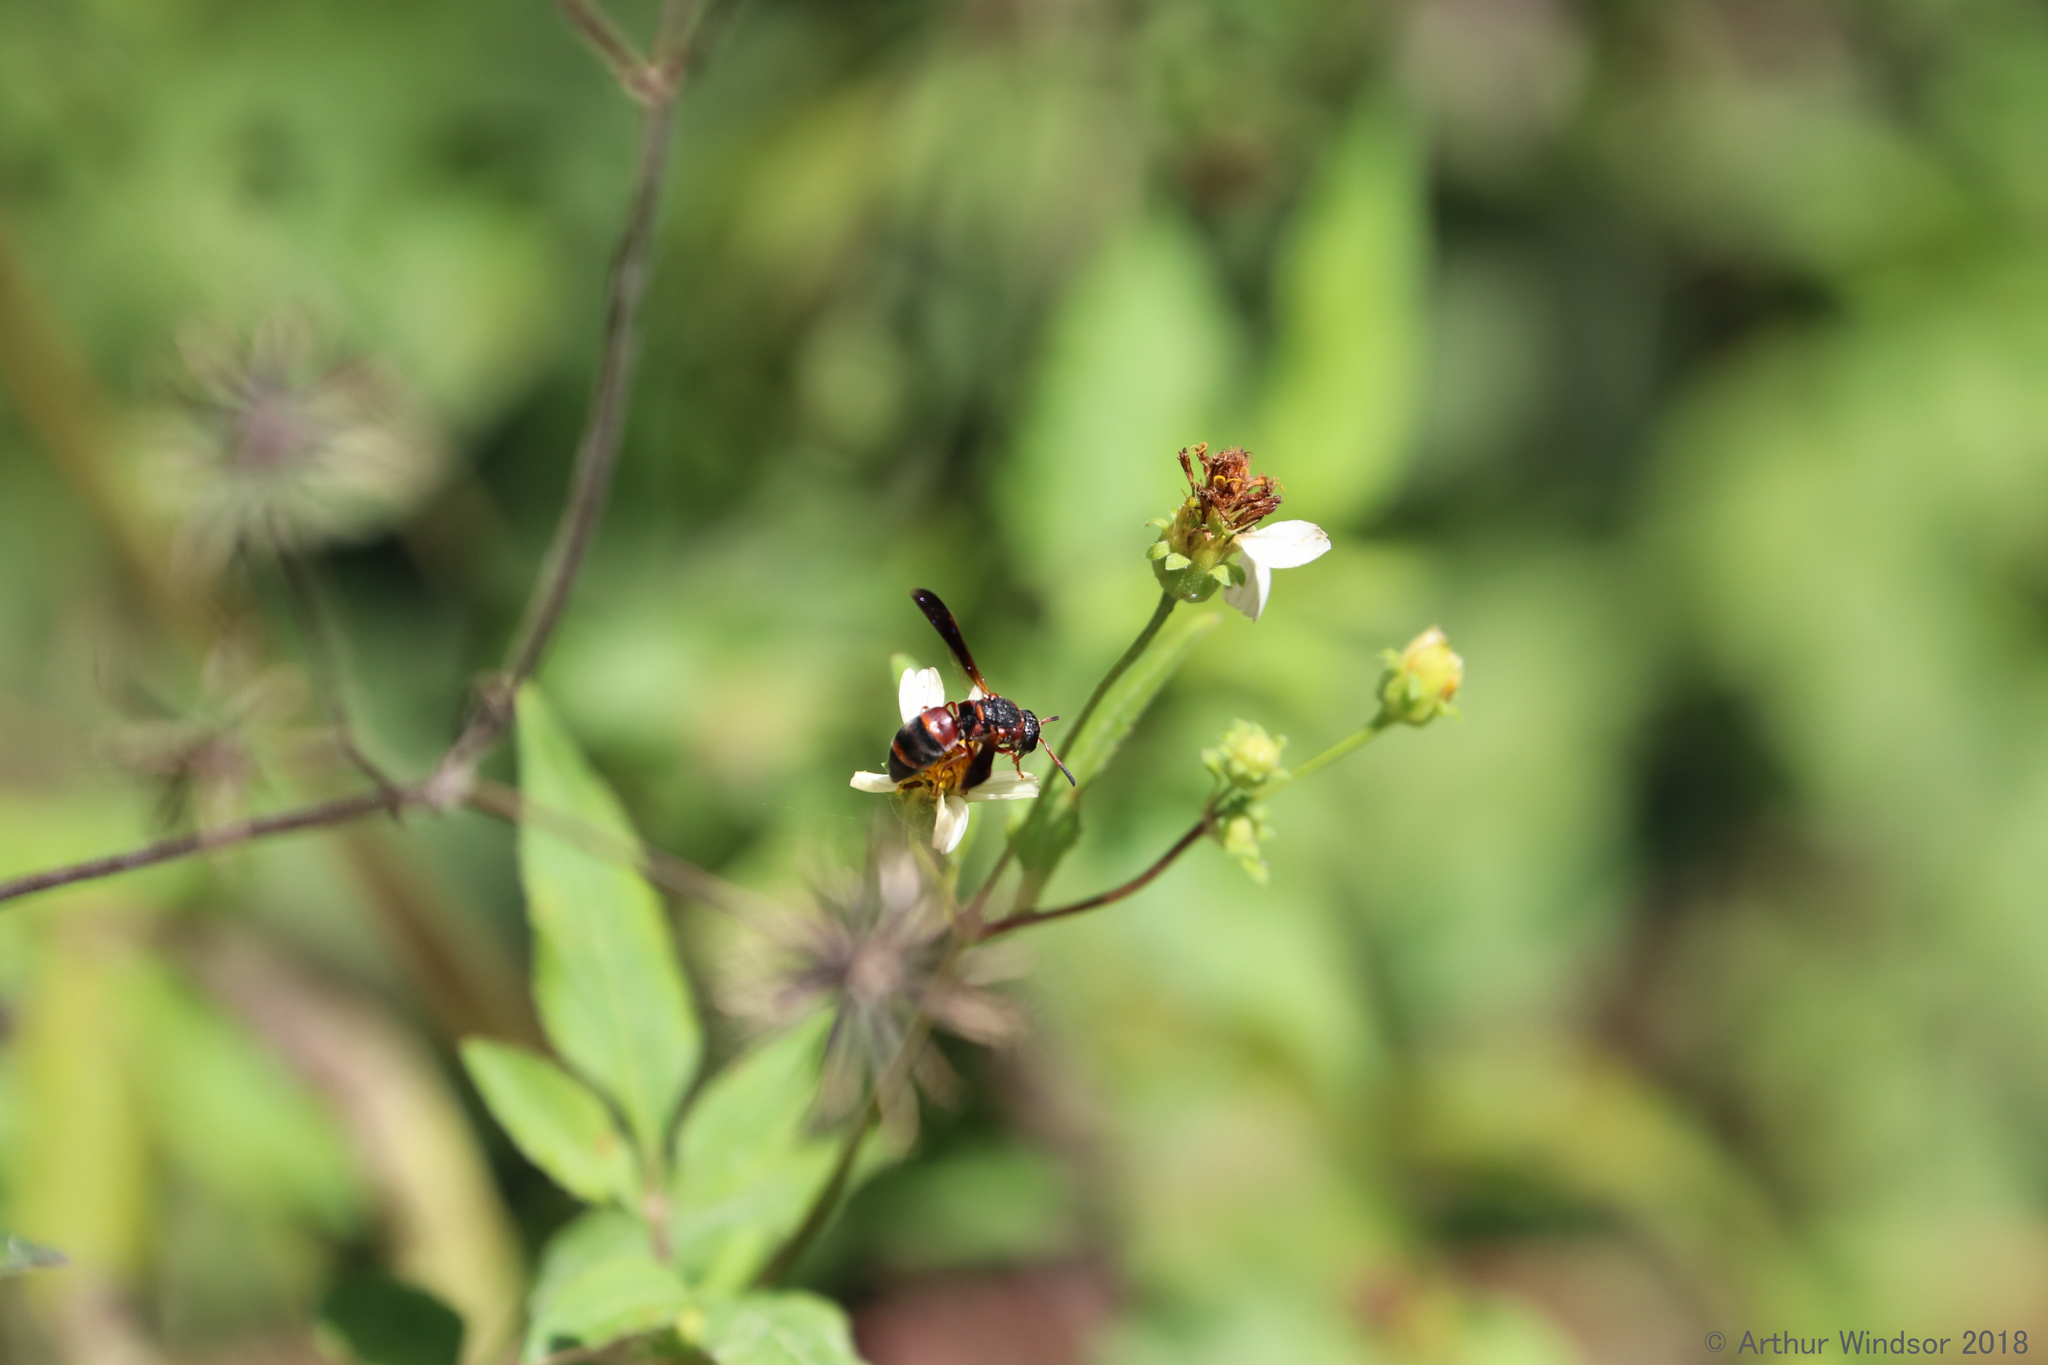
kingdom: Animalia
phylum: Arthropoda
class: Insecta
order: Hymenoptera
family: Eumenidae
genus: Pachodynerus
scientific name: Pachodynerus erynnis
